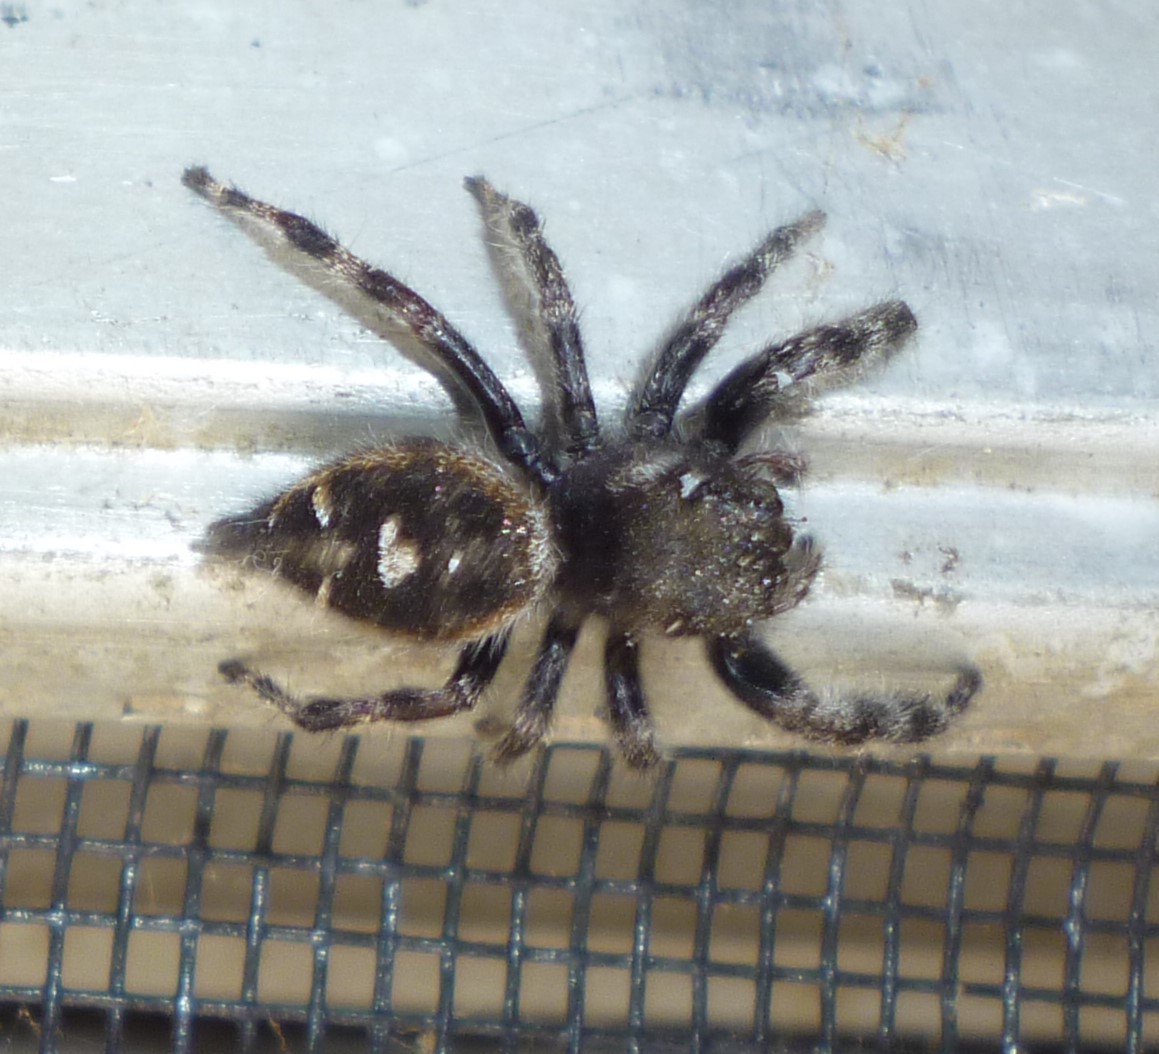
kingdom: Animalia
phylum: Arthropoda
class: Arachnida
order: Araneae
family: Salticidae
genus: Phidippus
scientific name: Phidippus audax
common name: Bold jumper
